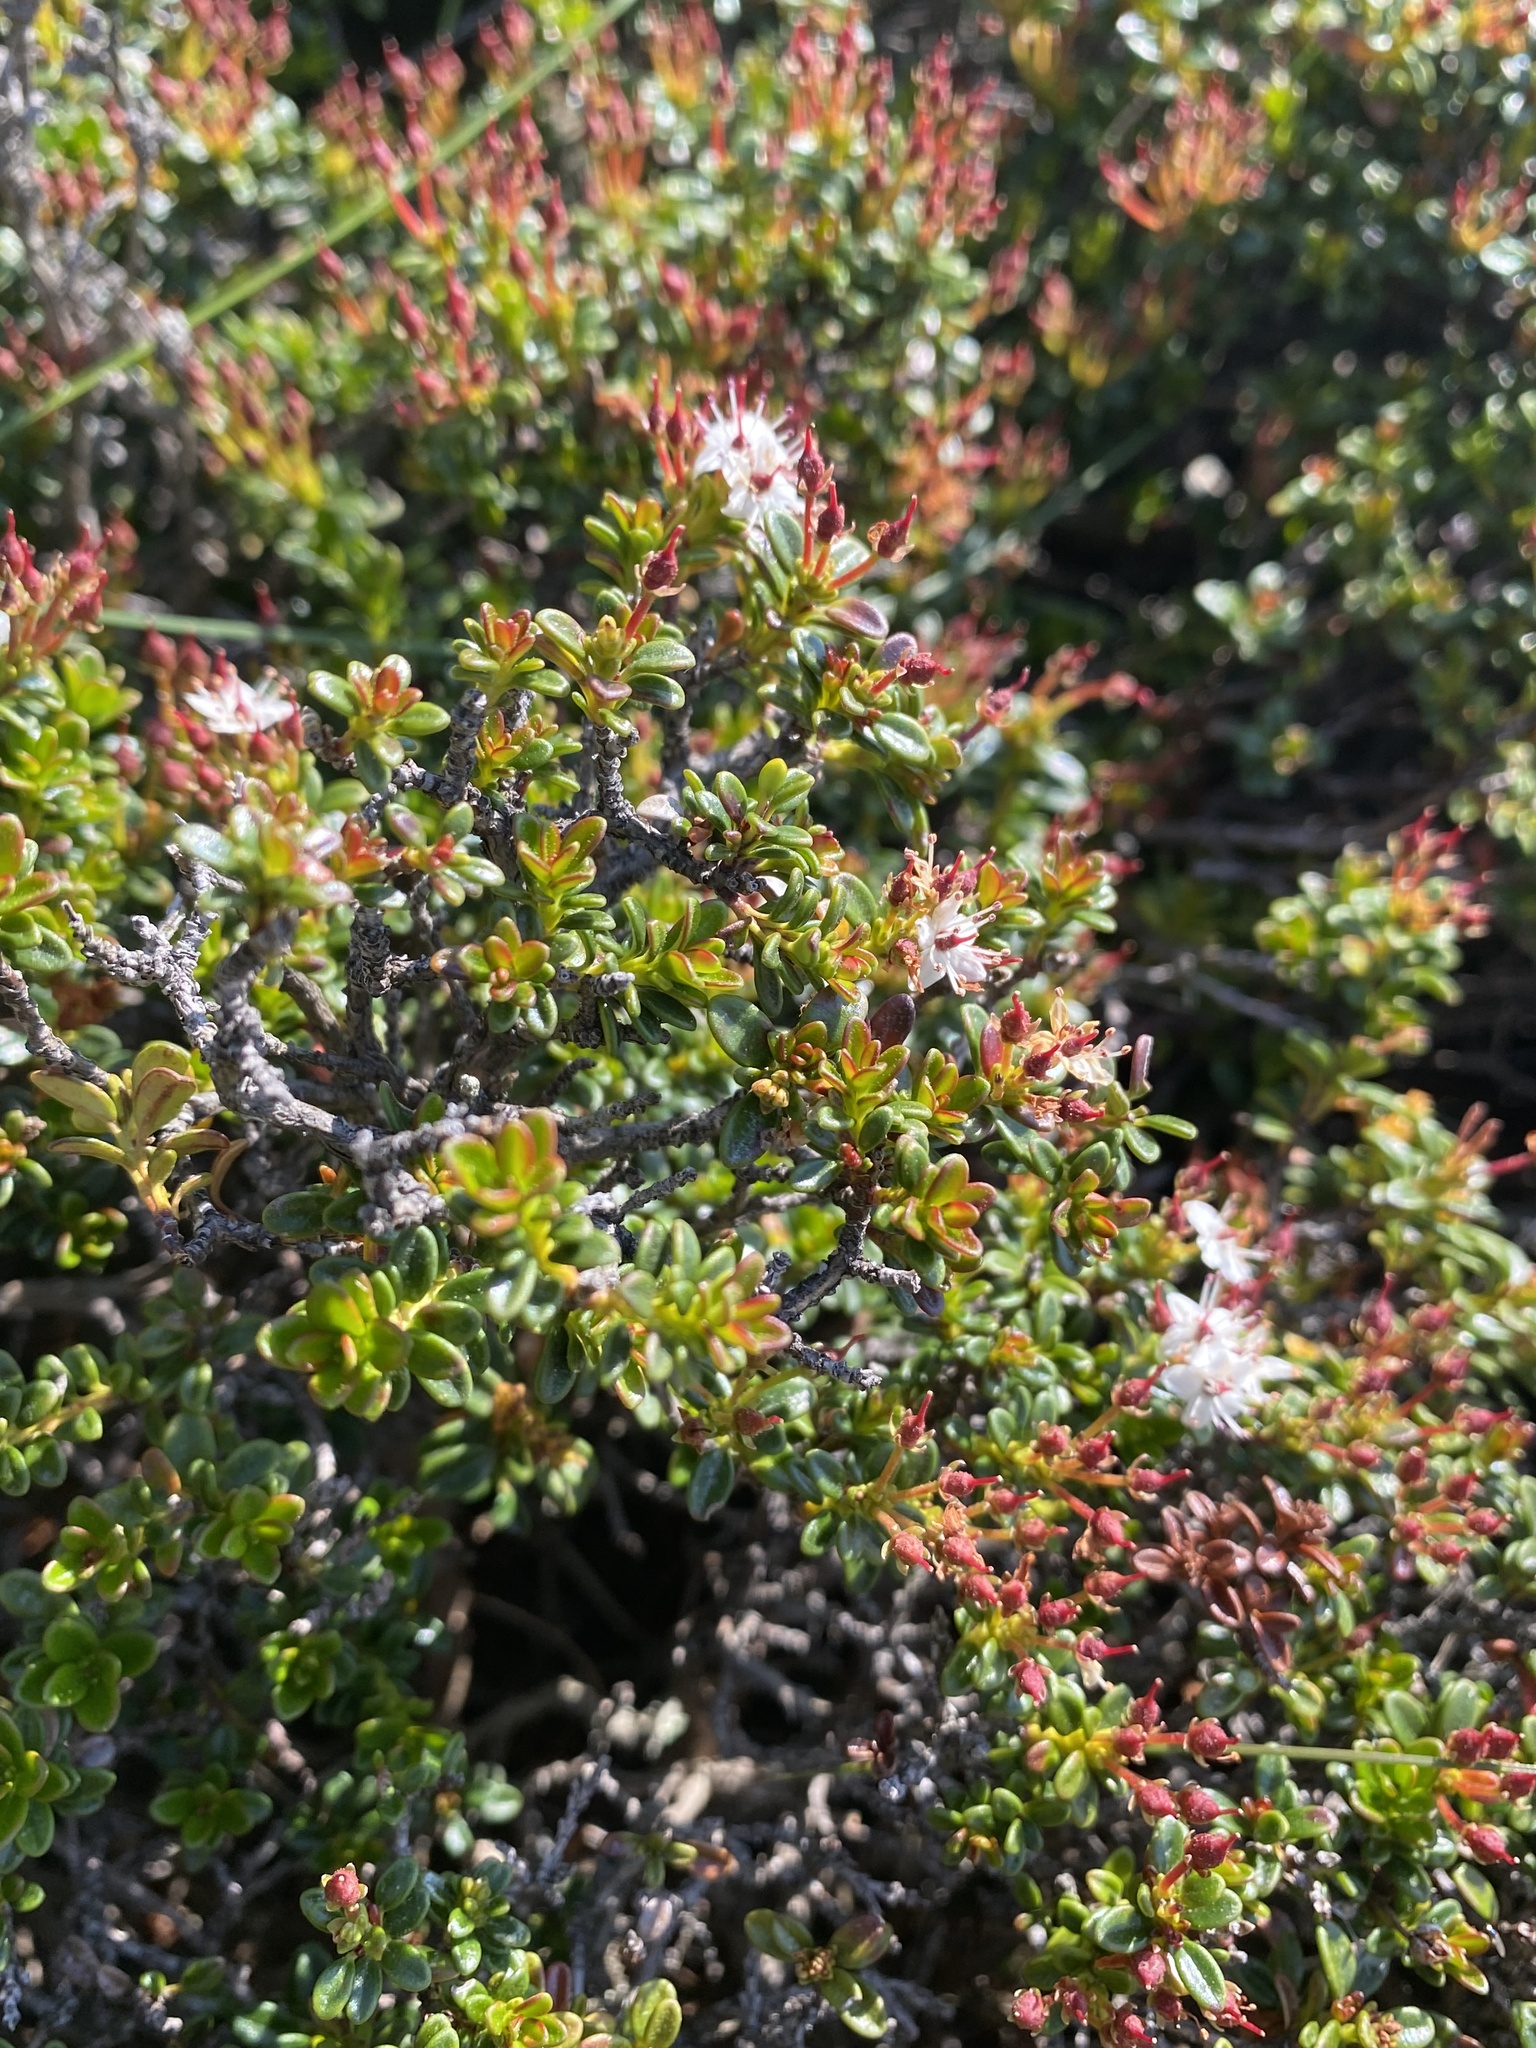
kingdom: Plantae
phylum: Tracheophyta
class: Magnoliopsida
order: Ericales
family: Ericaceae
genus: Kalmia
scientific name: Kalmia buxifolia
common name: Sandmyrtle
